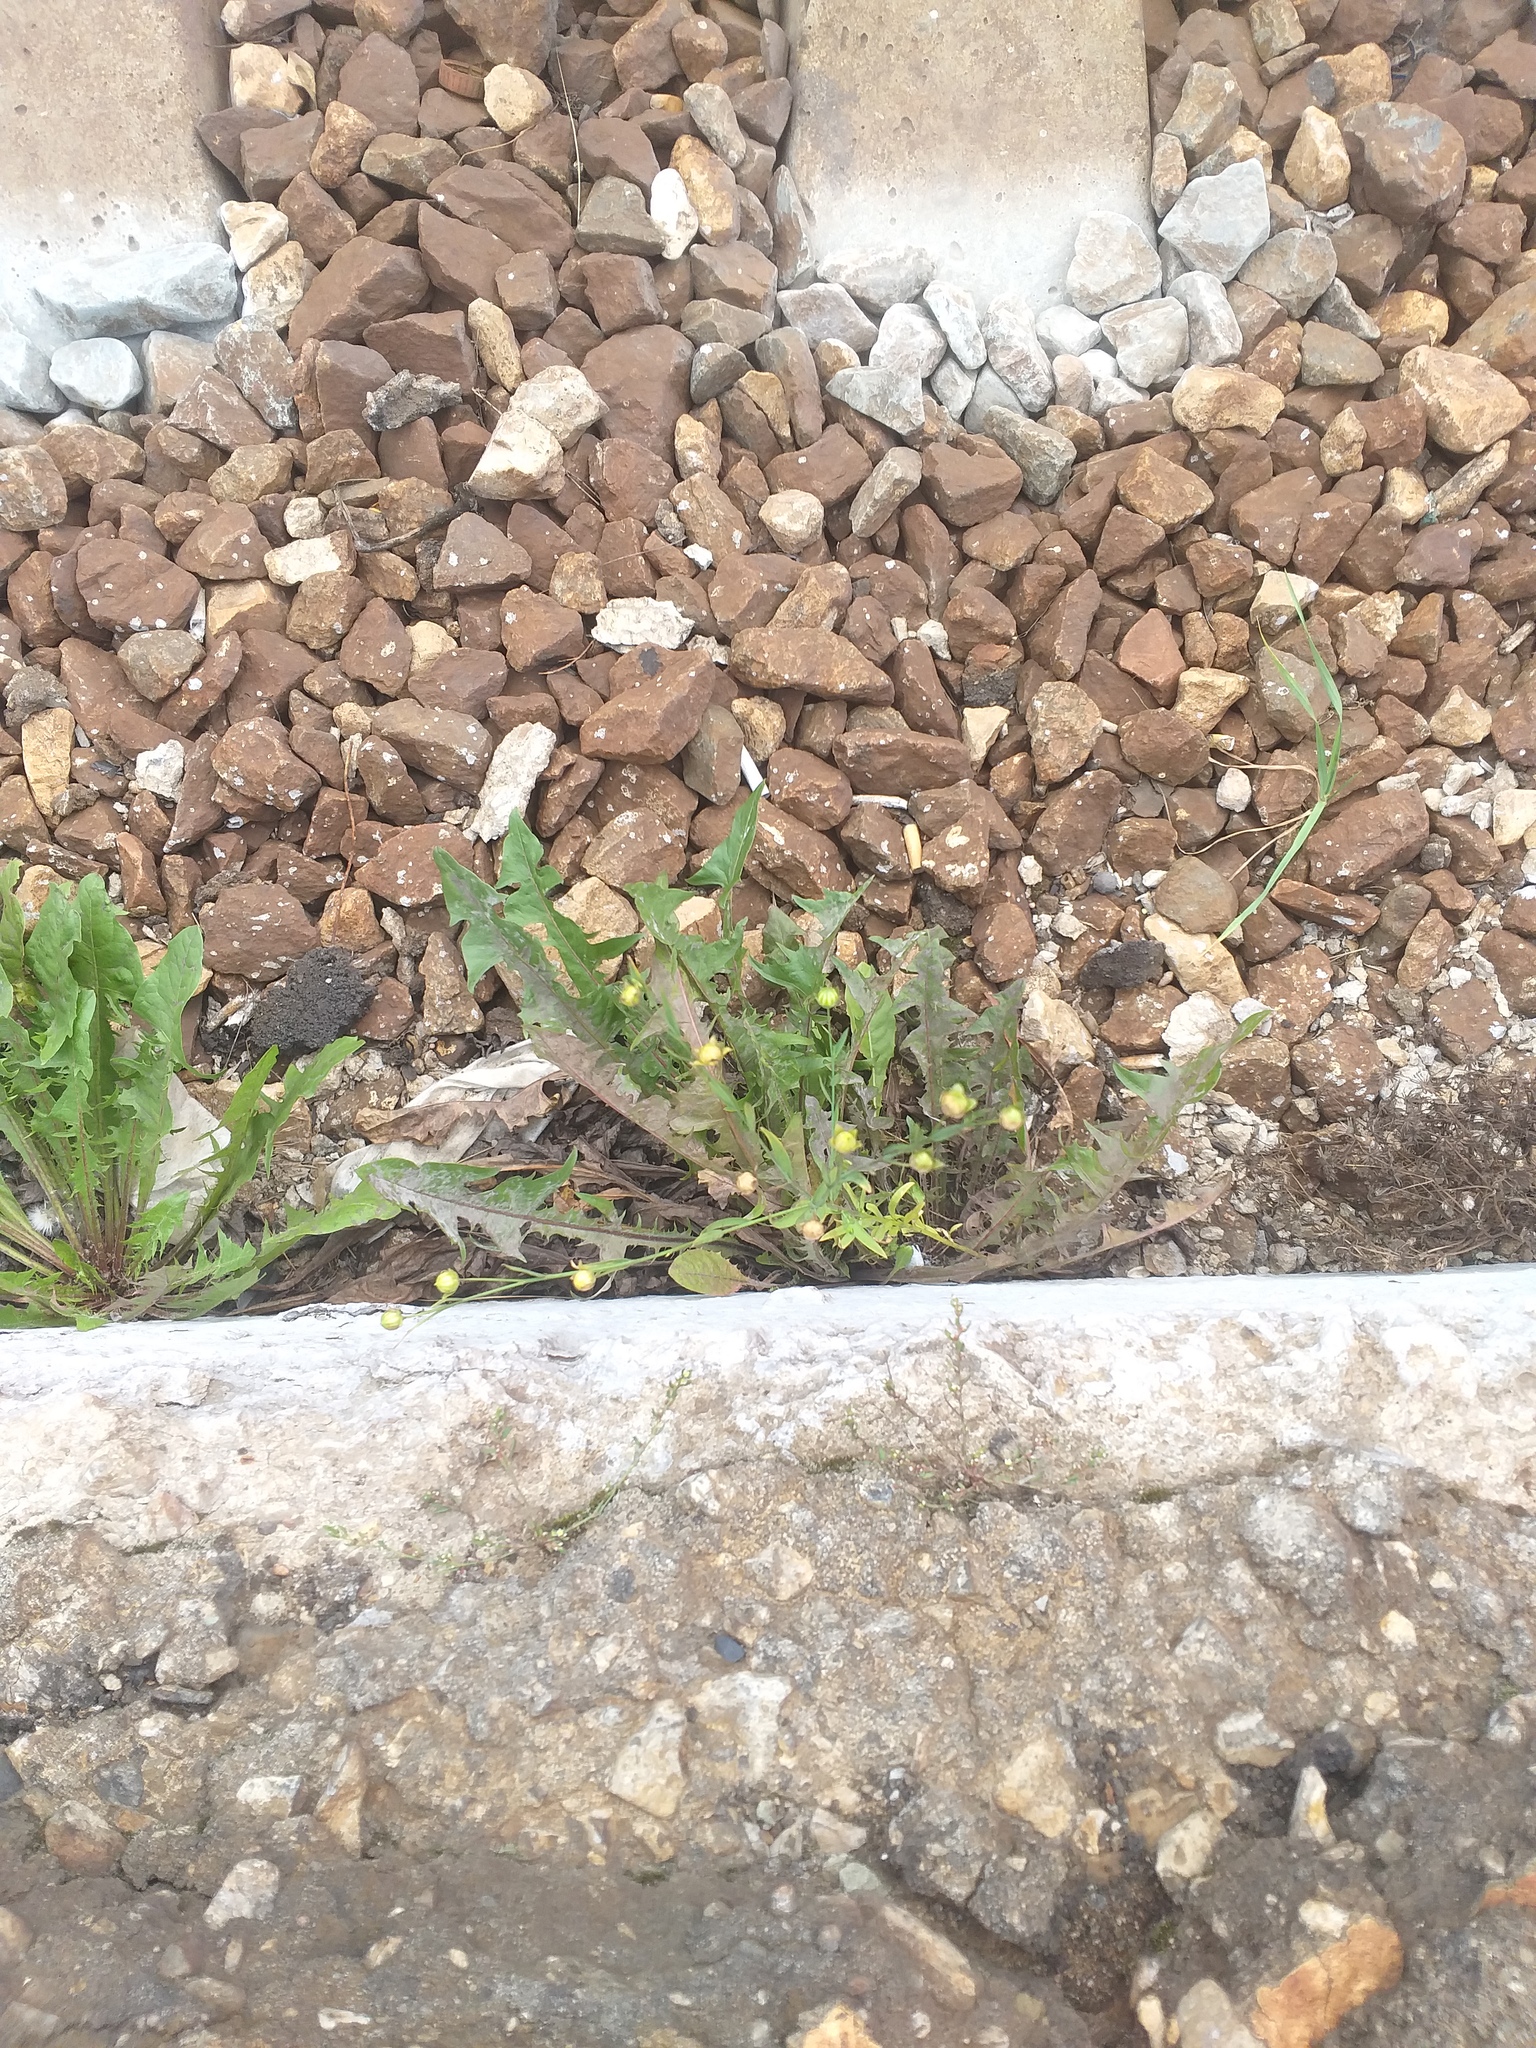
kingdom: Plantae
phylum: Tracheophyta
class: Magnoliopsida
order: Malpighiales
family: Linaceae
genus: Linum
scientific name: Linum usitatissimum
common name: Flax
